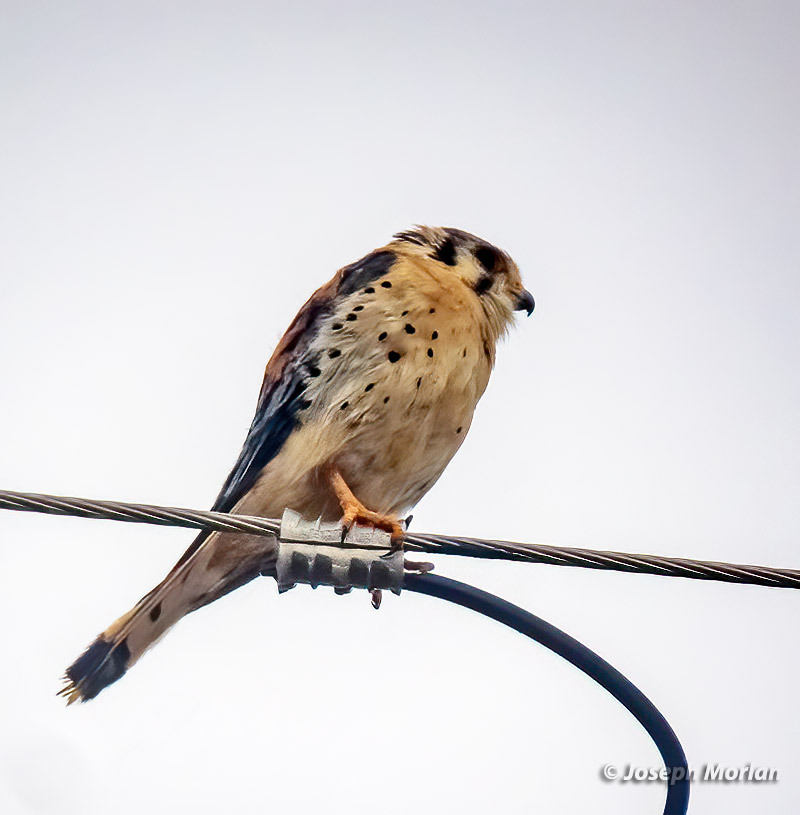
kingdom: Animalia
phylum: Chordata
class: Aves
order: Falconiformes
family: Falconidae
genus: Falco
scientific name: Falco sparverius
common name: American kestrel
